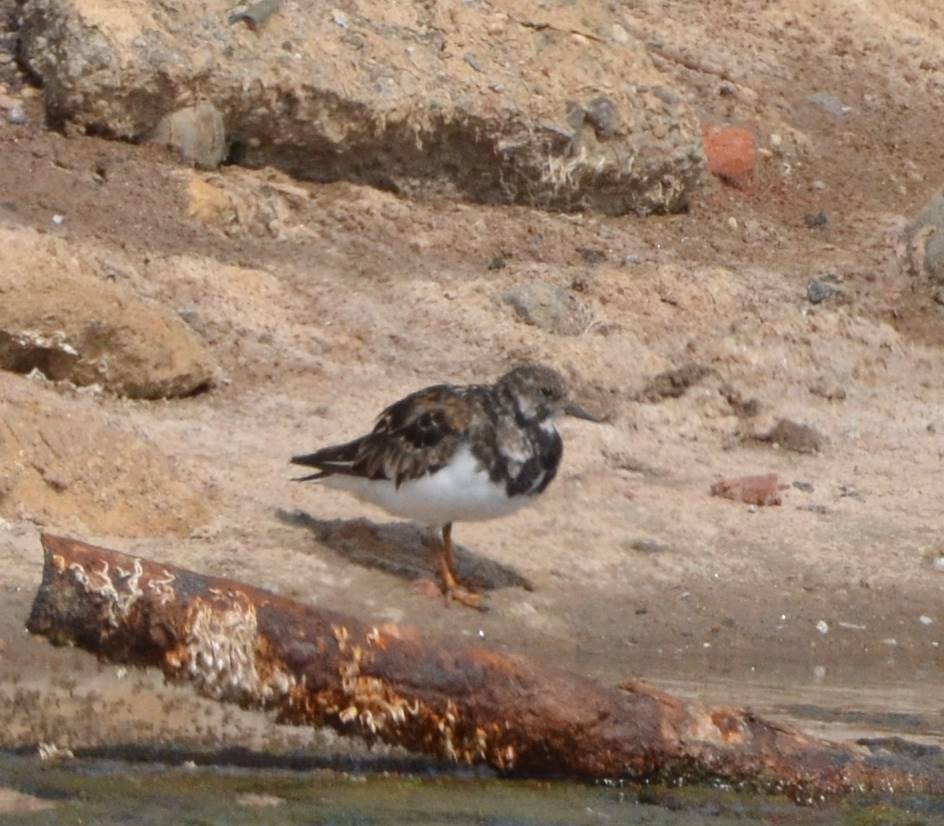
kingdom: Animalia
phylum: Chordata
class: Aves
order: Charadriiformes
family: Scolopacidae
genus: Arenaria
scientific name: Arenaria interpres
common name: Ruddy turnstone
